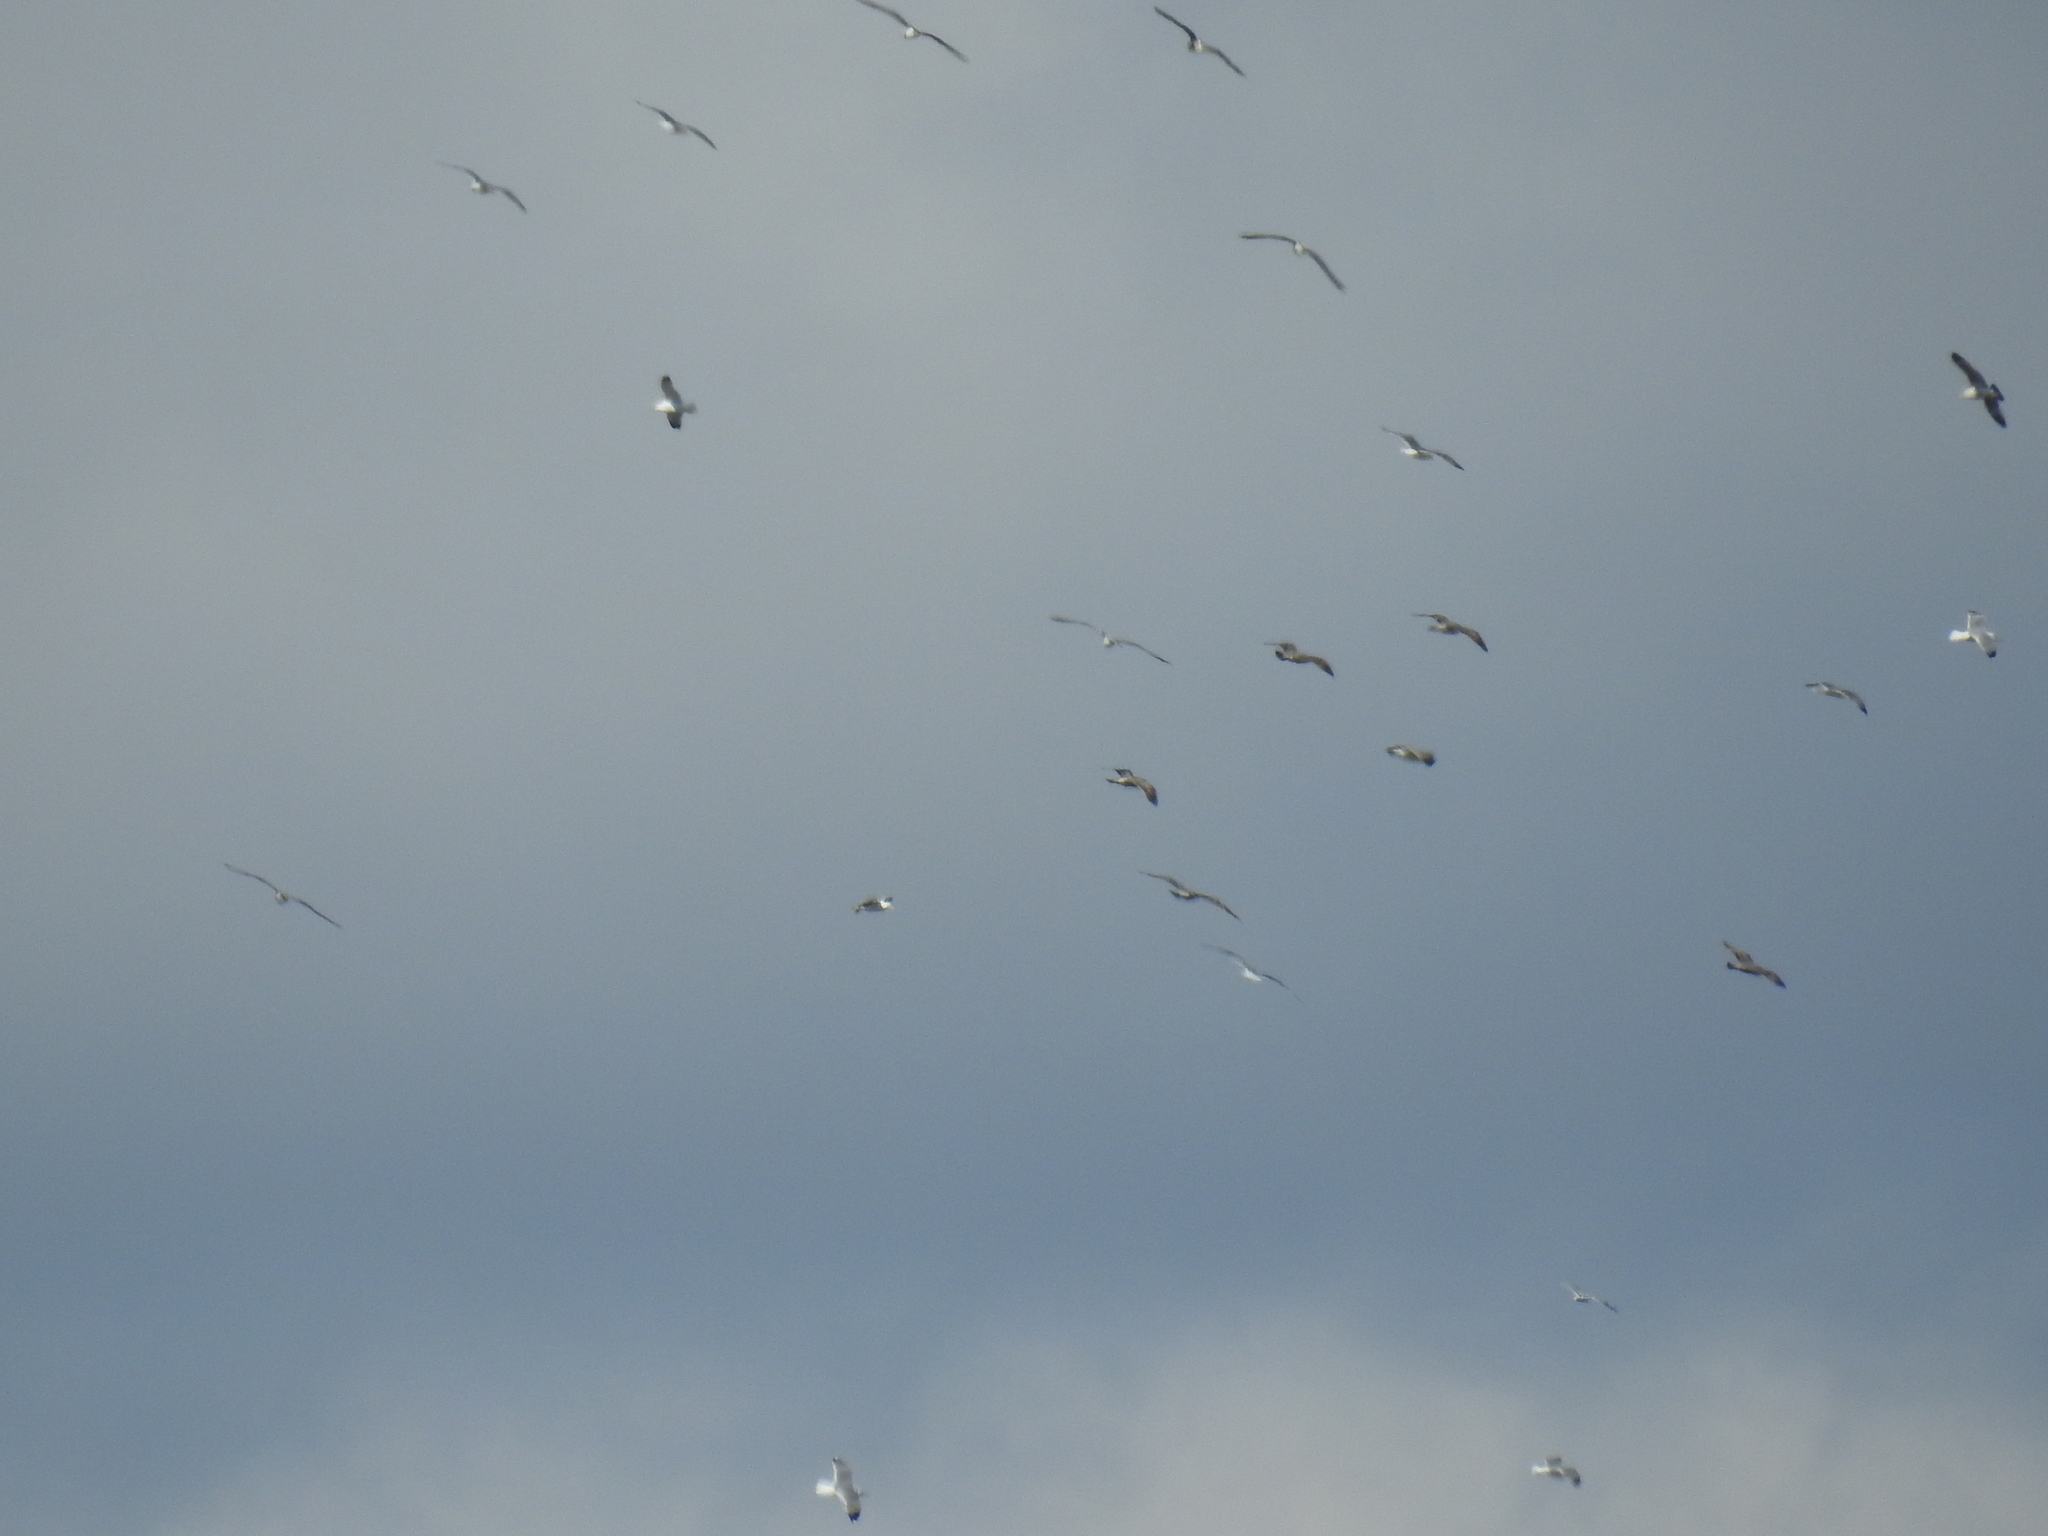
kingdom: Animalia
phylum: Chordata
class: Aves
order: Charadriiformes
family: Laridae
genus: Larus
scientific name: Larus californicus
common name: California gull
